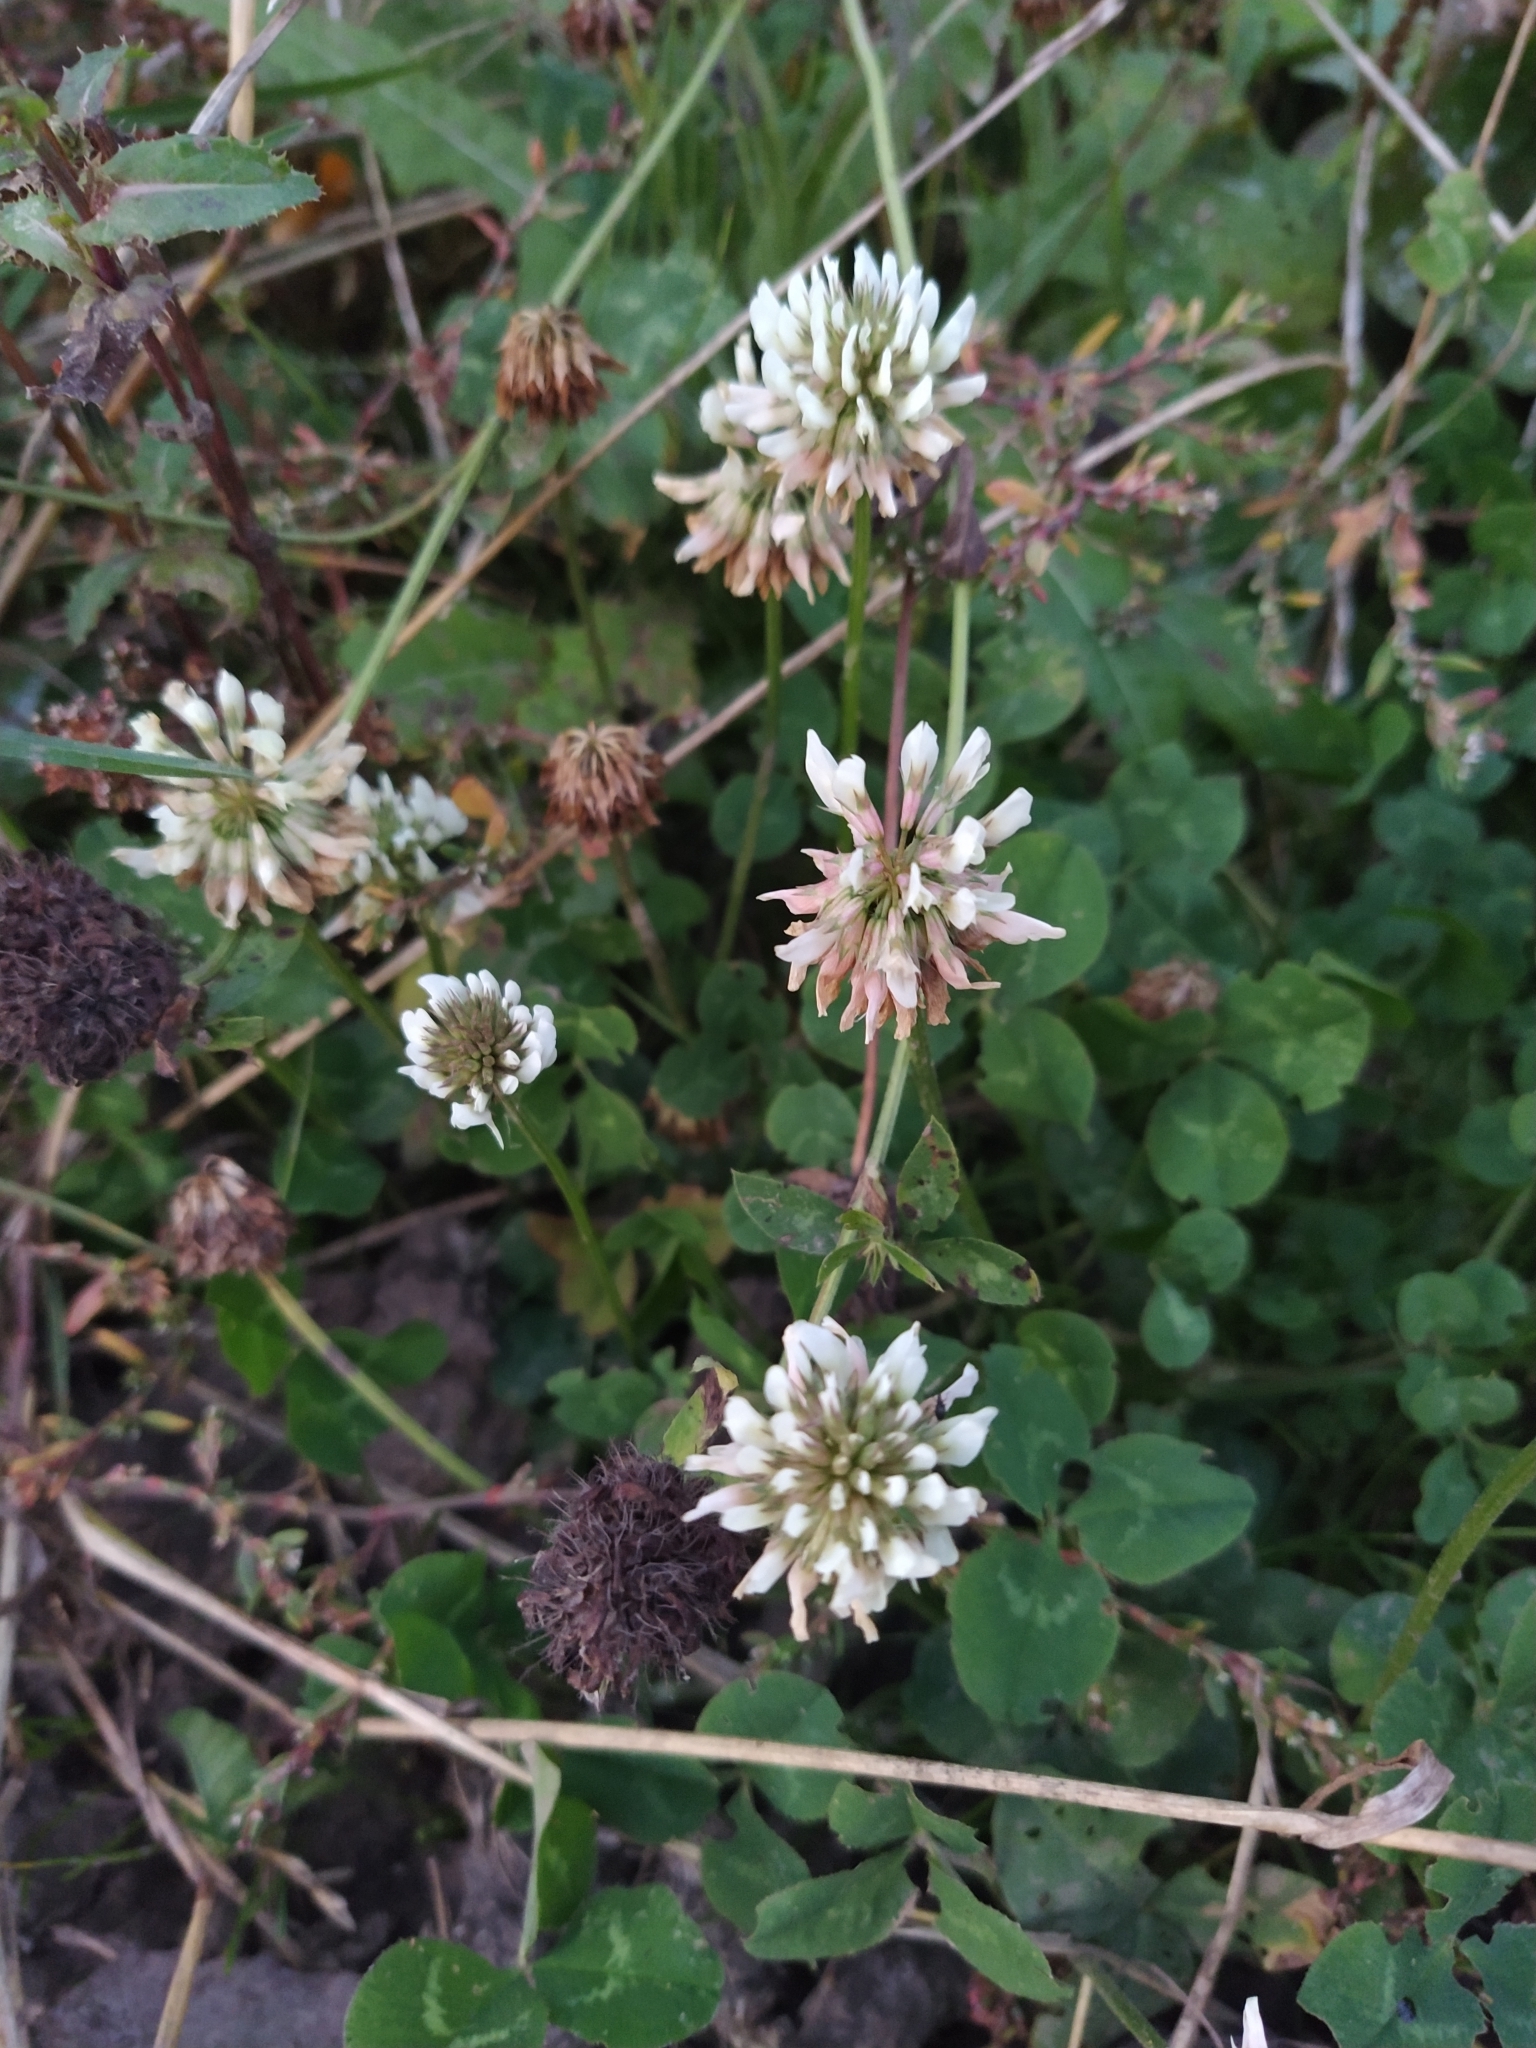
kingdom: Plantae
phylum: Tracheophyta
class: Magnoliopsida
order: Fabales
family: Fabaceae
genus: Trifolium
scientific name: Trifolium repens
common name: White clover
